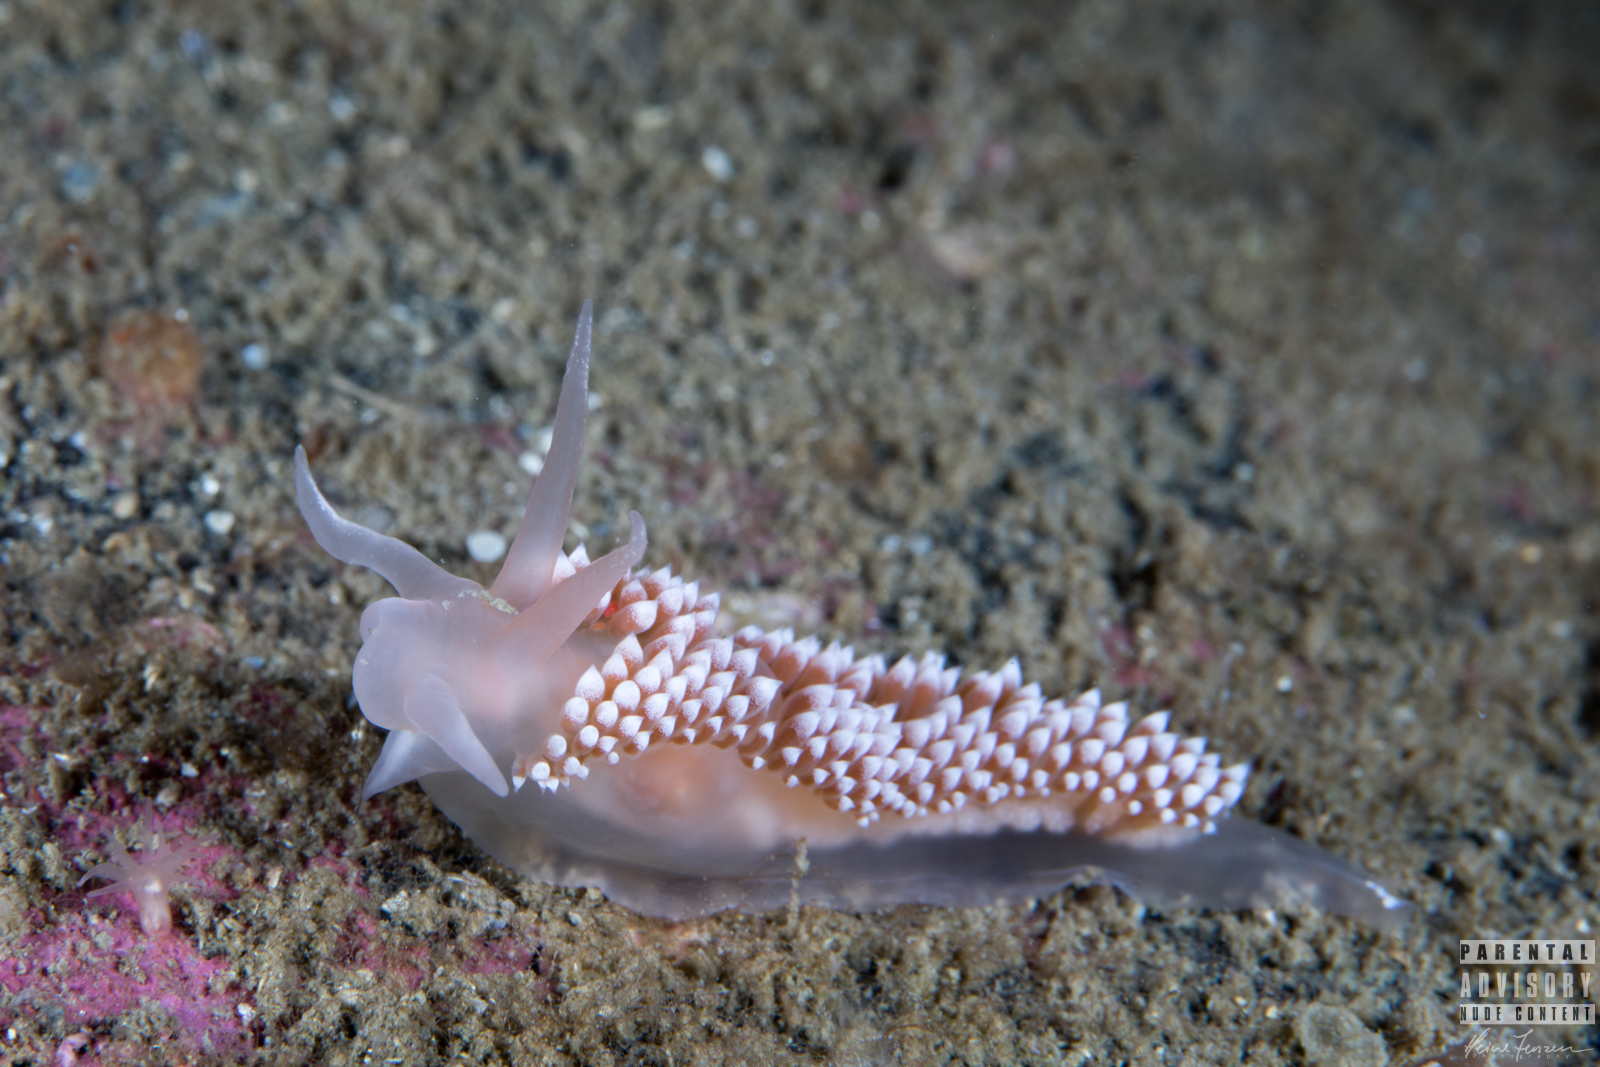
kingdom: Animalia
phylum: Mollusca
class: Gastropoda
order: Nudibranchia
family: Coryphellidae
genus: Coryphella
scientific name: Coryphella verrucosa
